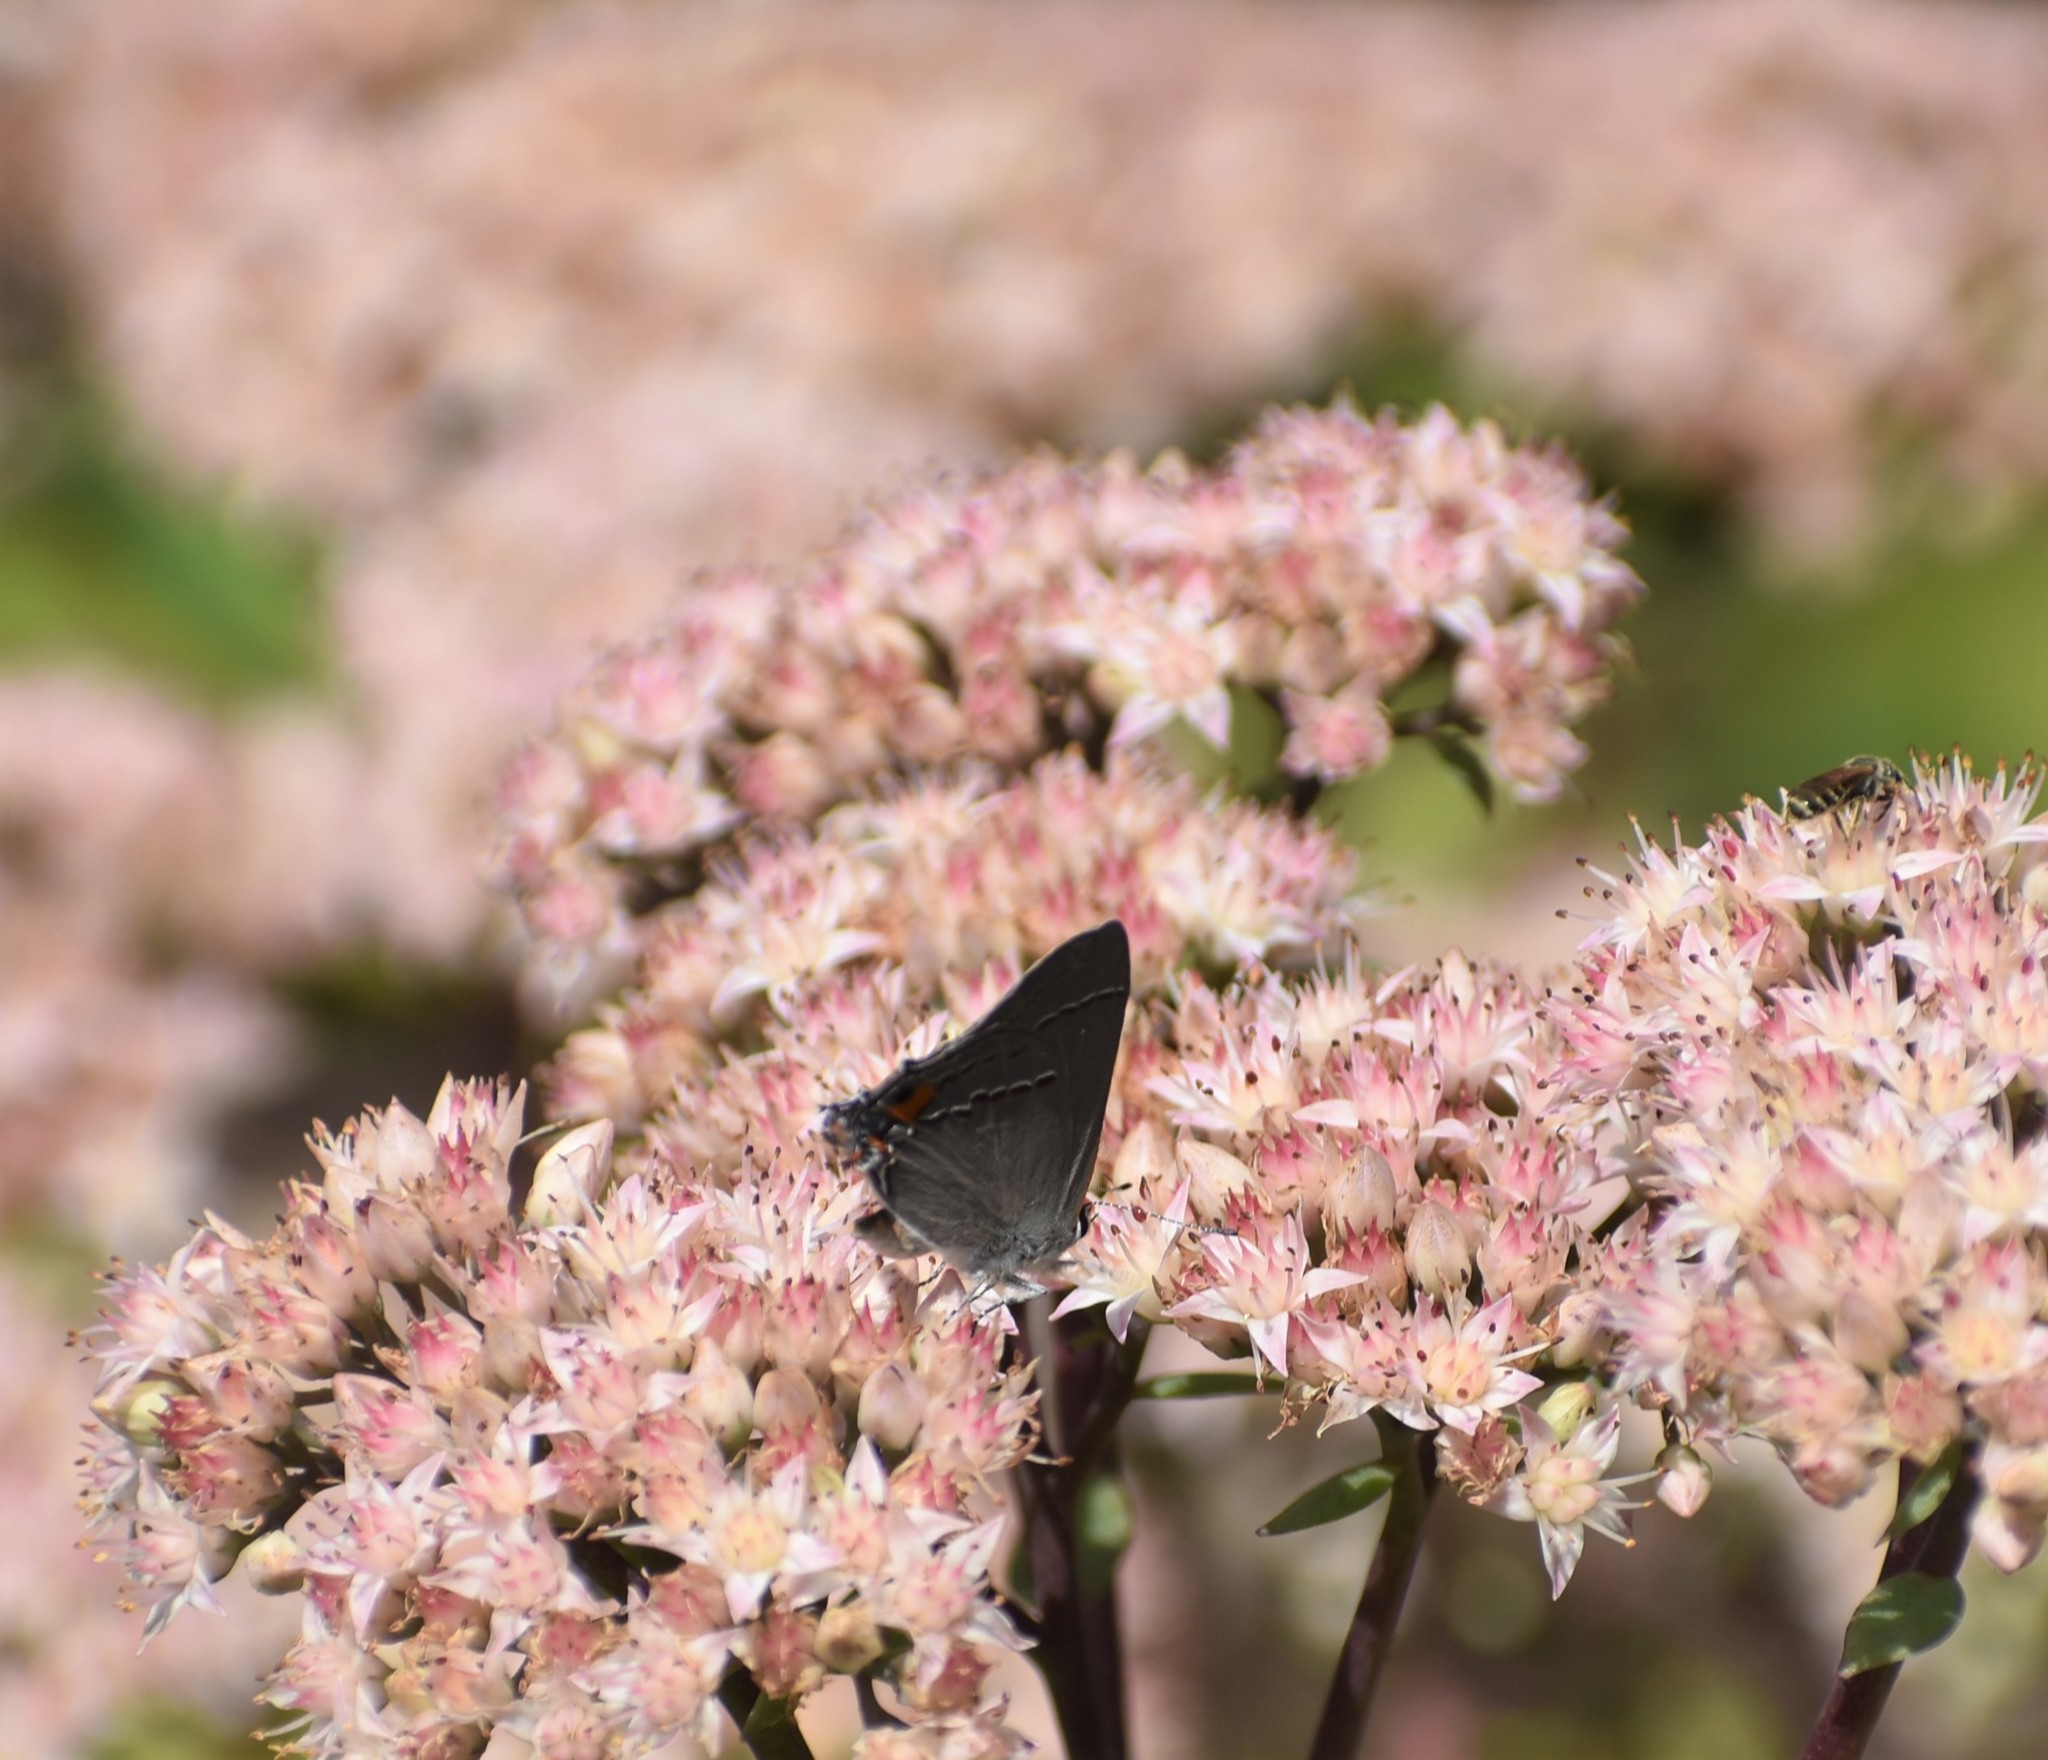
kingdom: Animalia
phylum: Arthropoda
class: Insecta
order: Lepidoptera
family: Lycaenidae
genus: Strymon
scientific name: Strymon melinus
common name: Gray hairstreak
